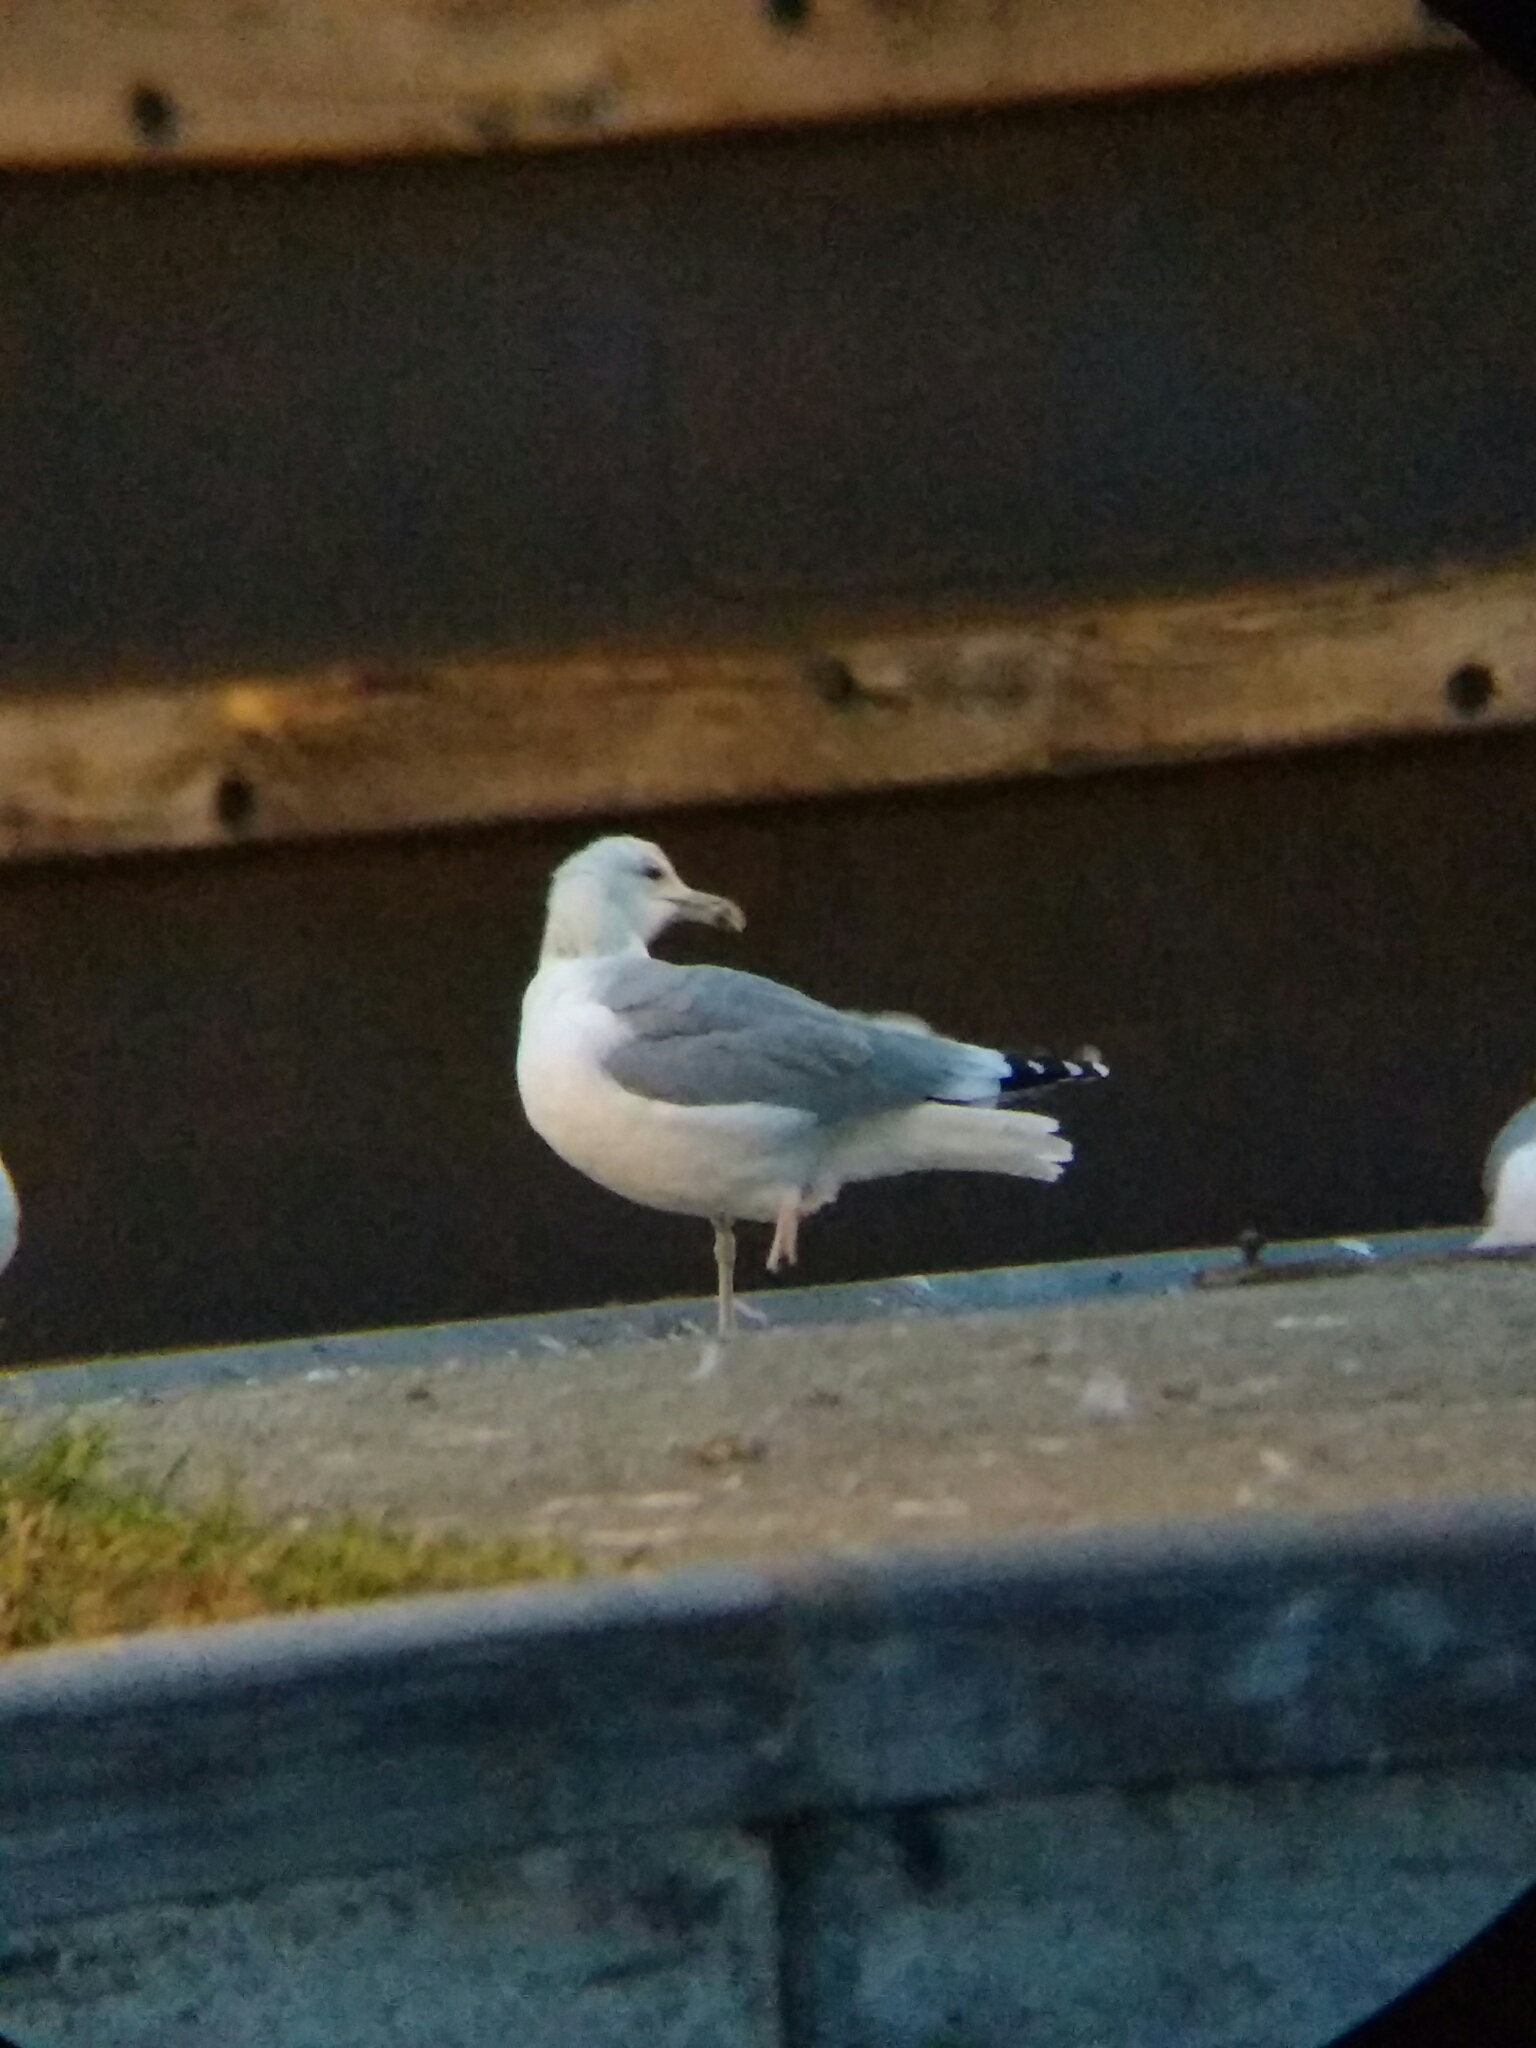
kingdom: Animalia
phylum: Chordata
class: Aves
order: Charadriiformes
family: Laridae
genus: Larus
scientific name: Larus cachinnans
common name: Caspian gull
